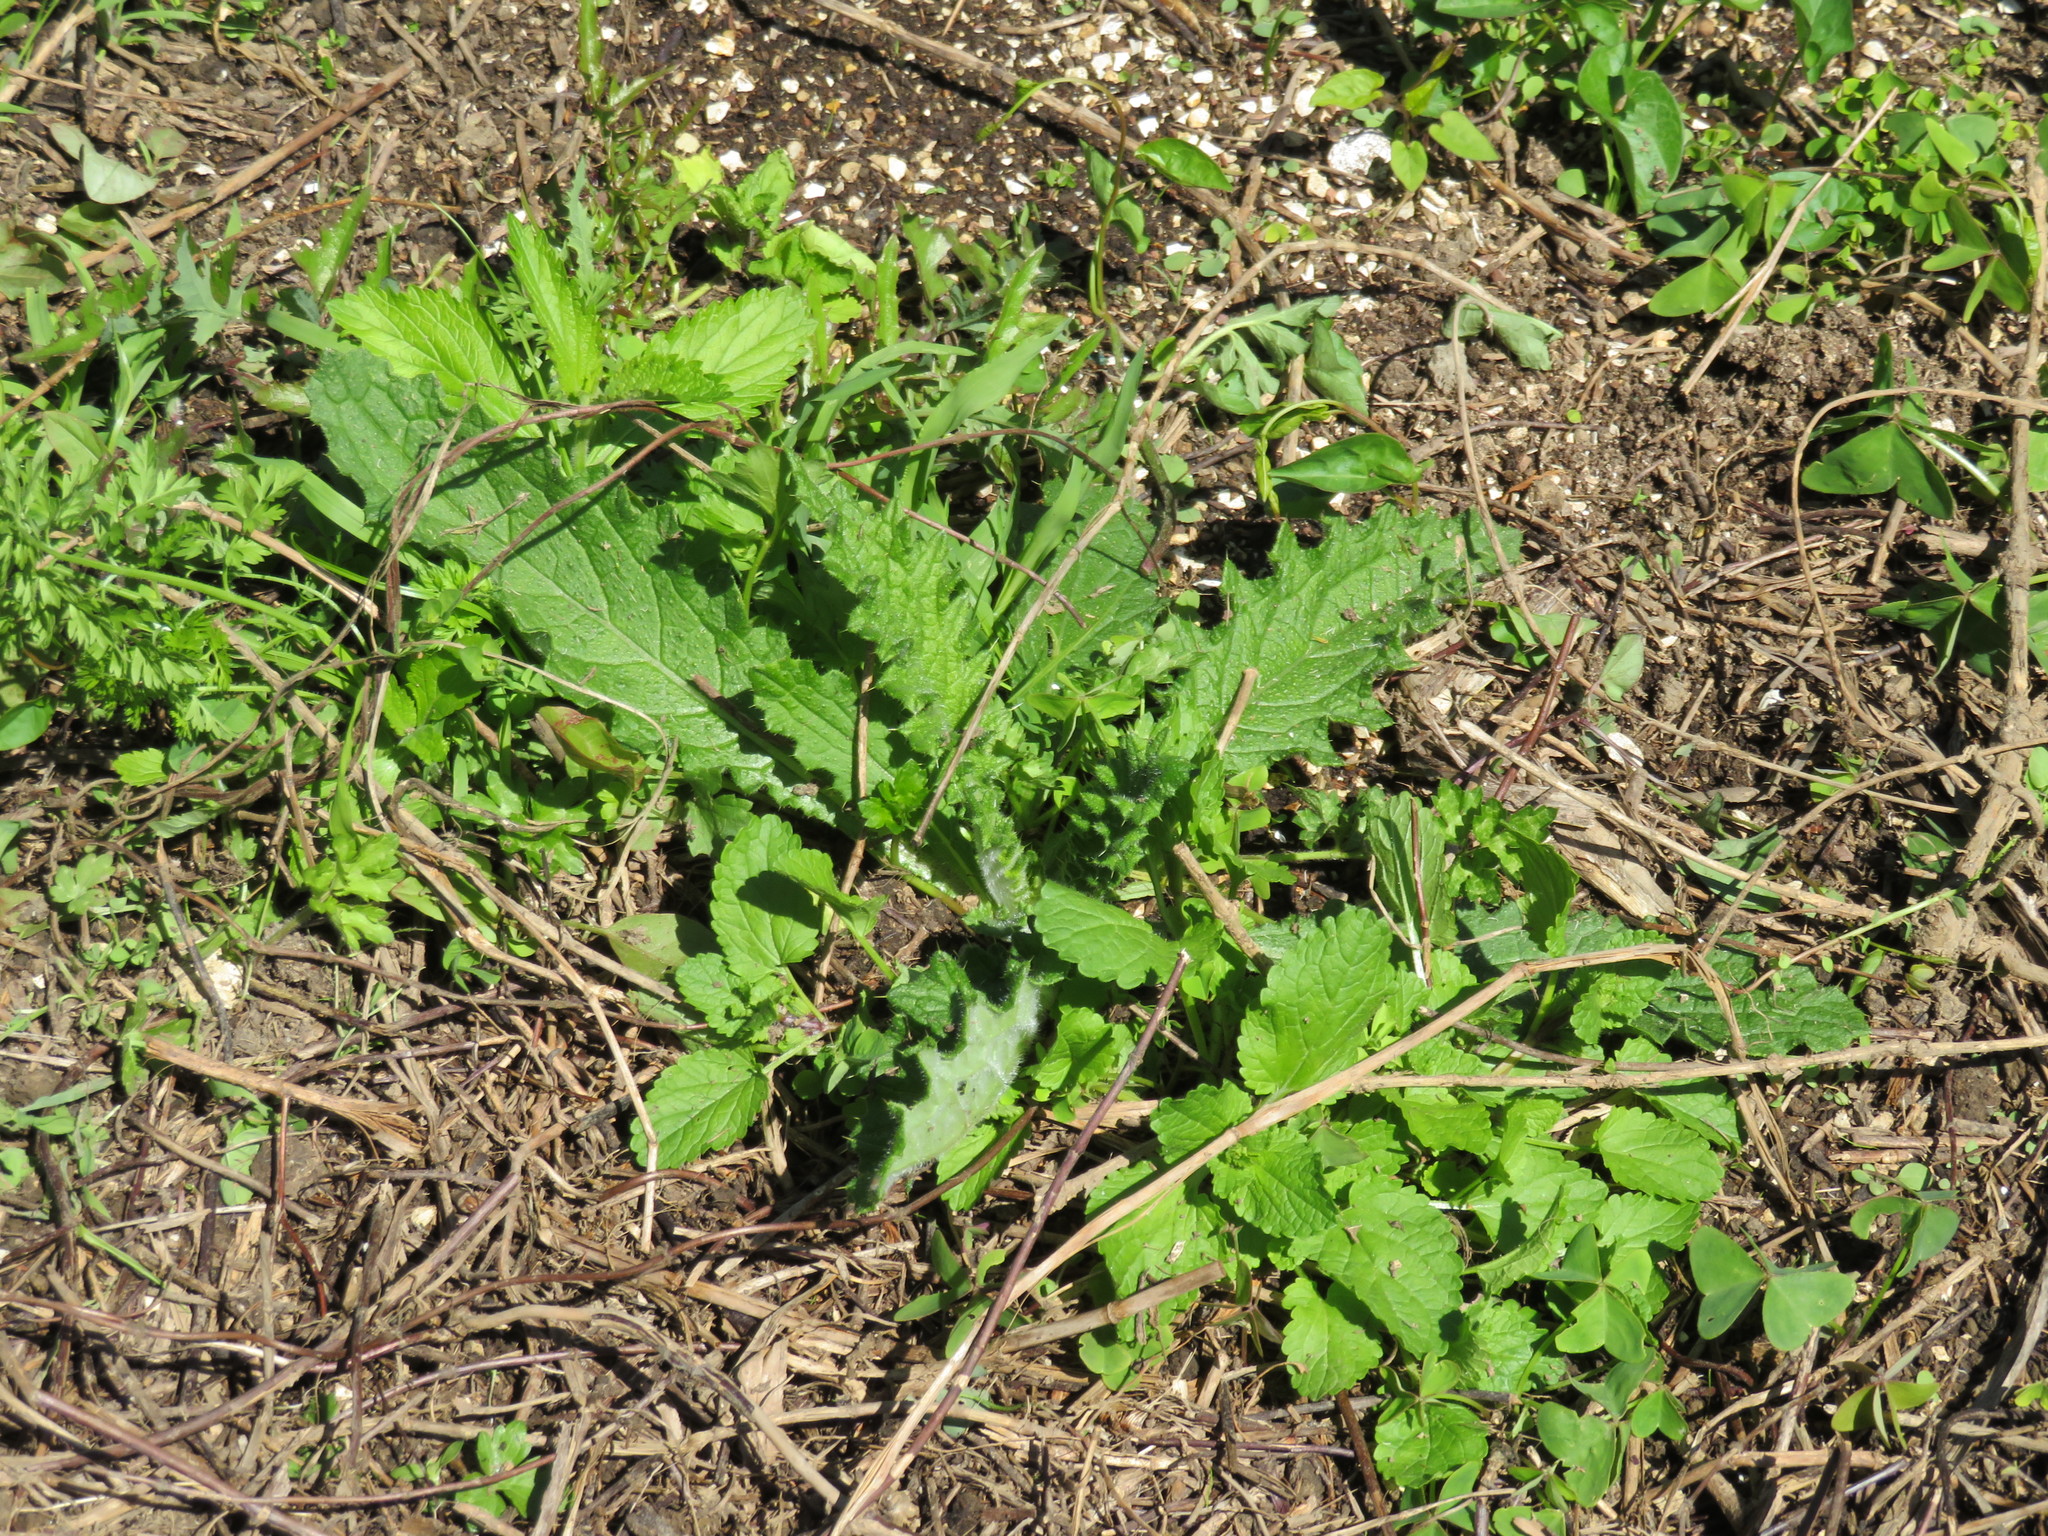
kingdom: Plantae
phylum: Tracheophyta
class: Magnoliopsida
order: Asterales
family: Asteraceae
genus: Cirsium
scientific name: Cirsium vulgare
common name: Bull thistle
